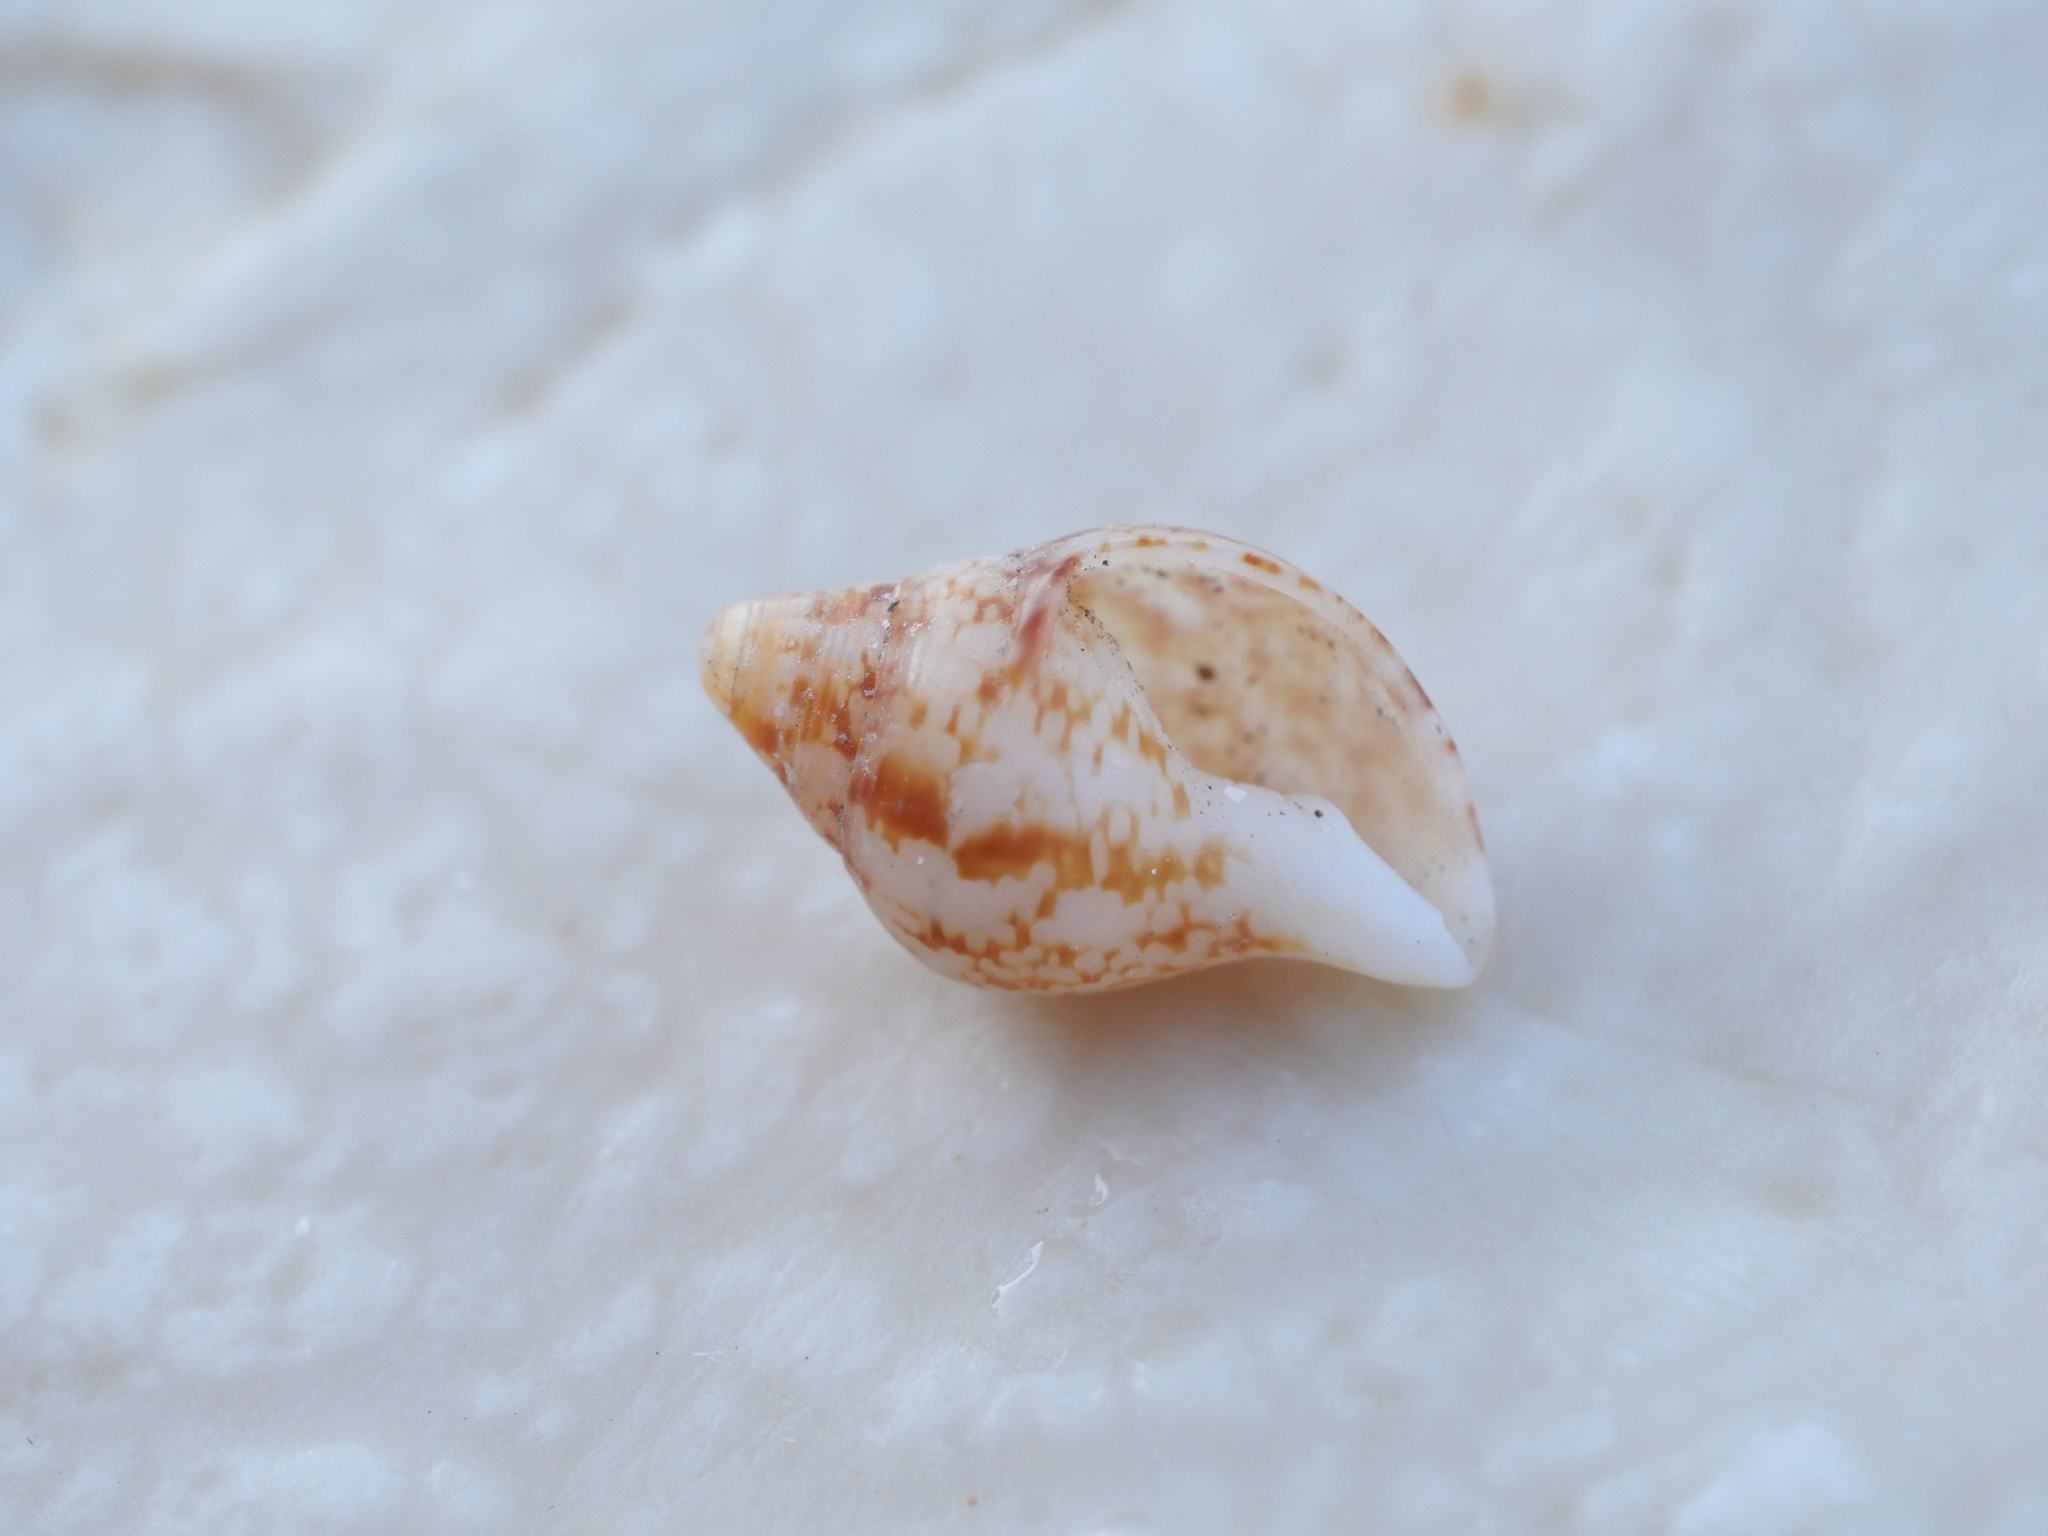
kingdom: Animalia
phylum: Mollusca
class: Gastropoda
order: Neogastropoda
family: Columbellidae
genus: Columbella
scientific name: Columbella rustica
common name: Rustic dove shell
